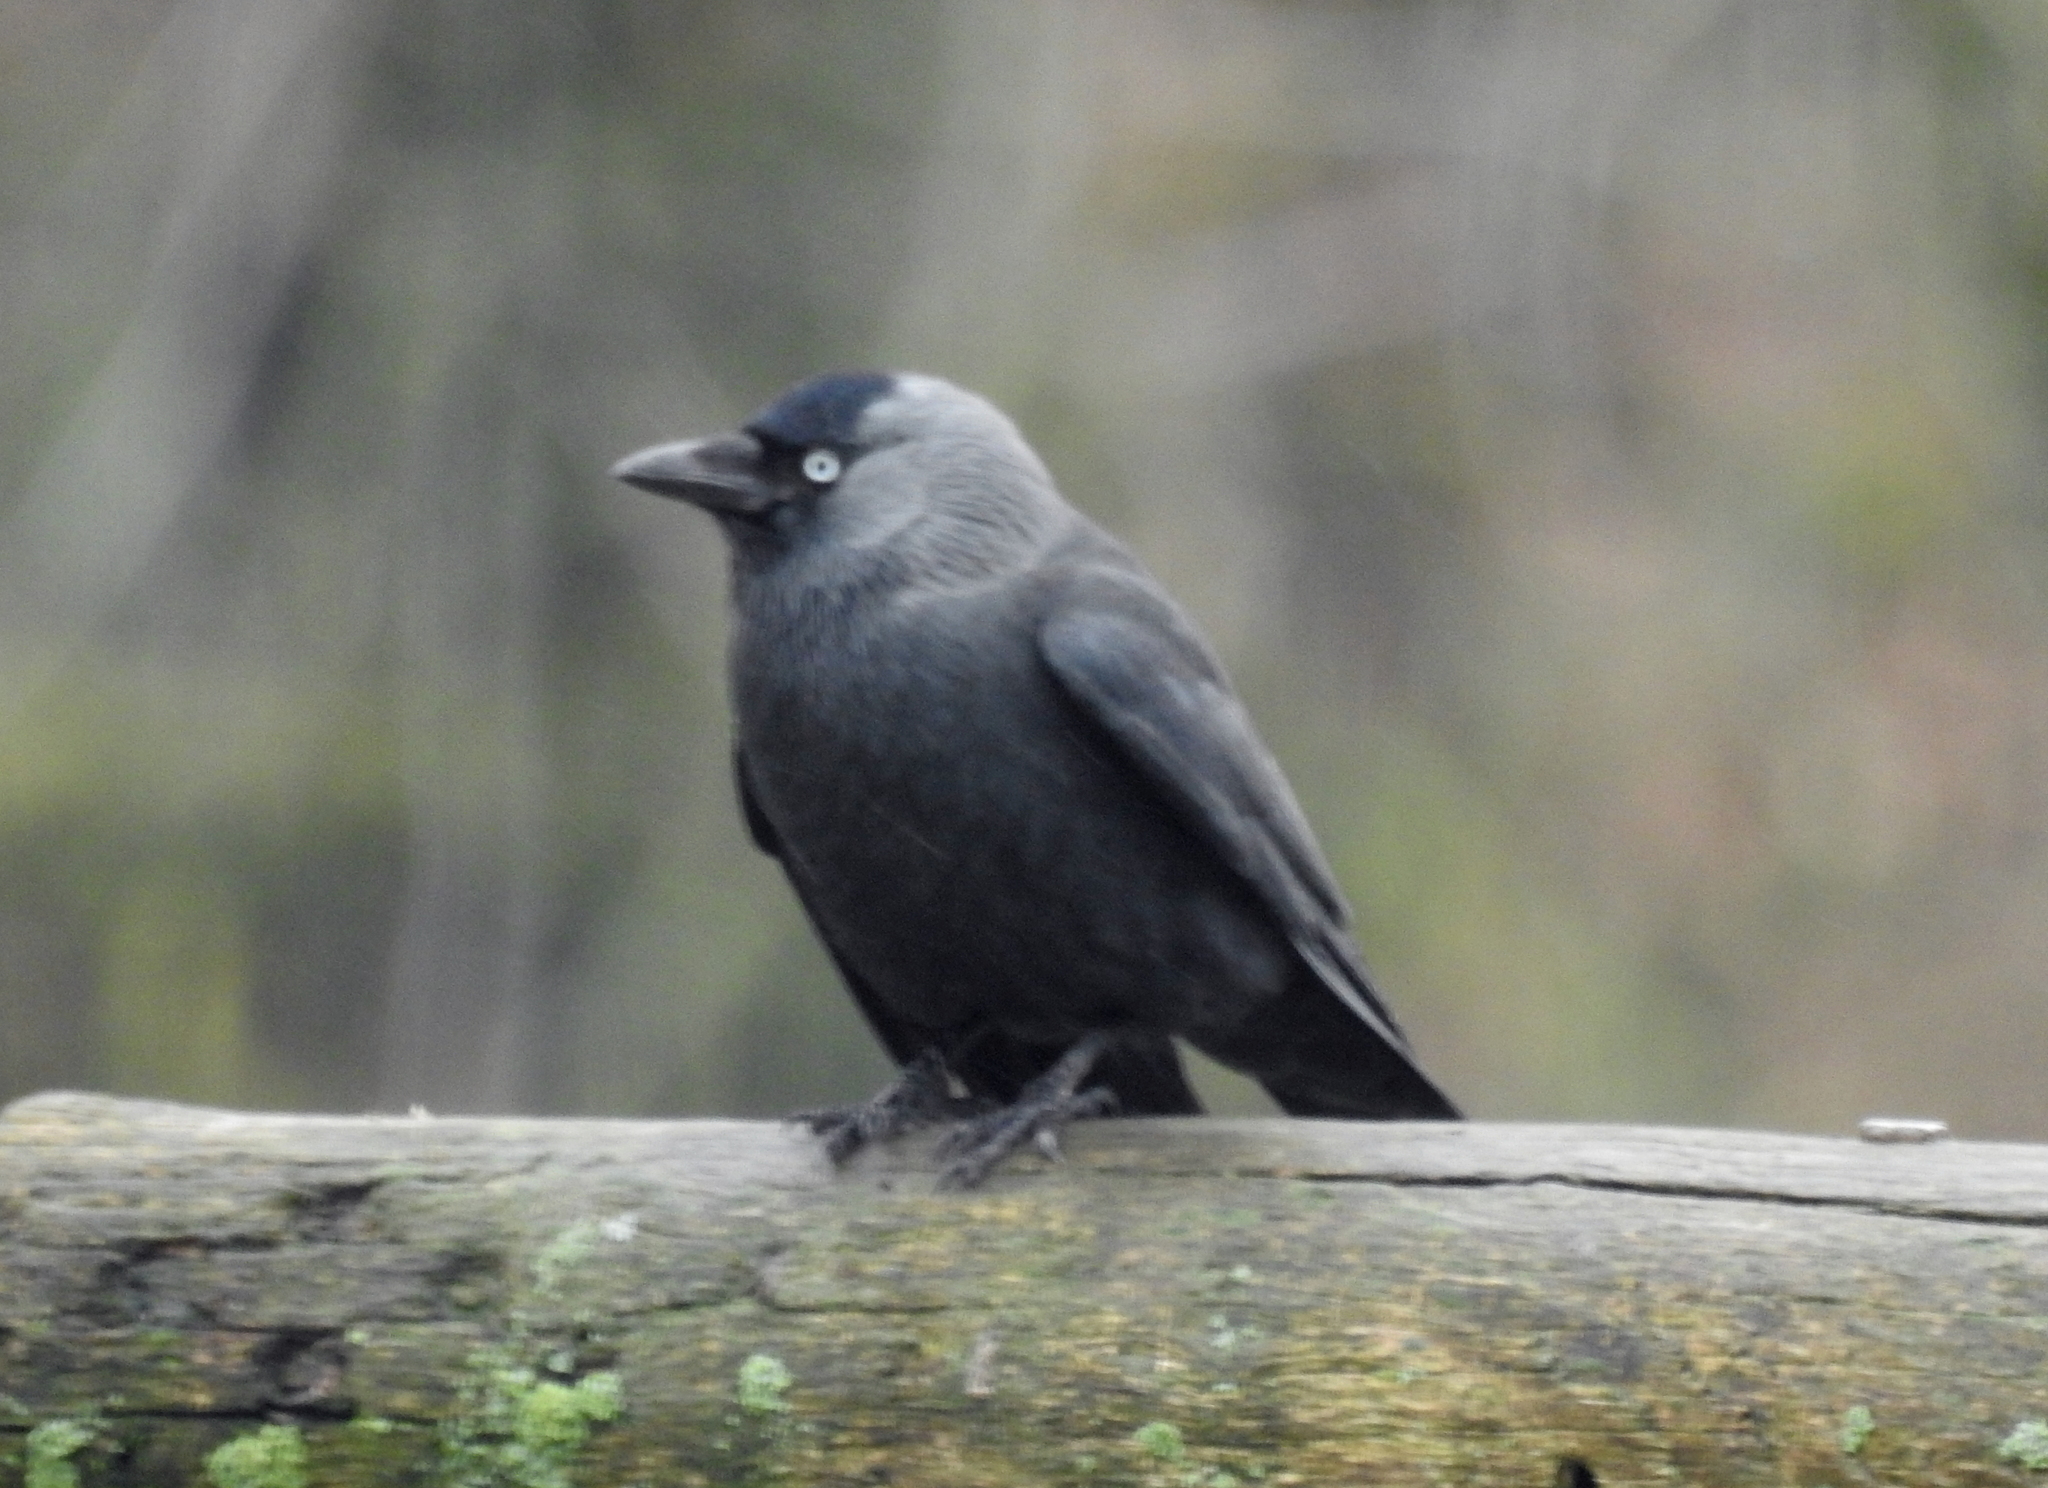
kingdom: Animalia
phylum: Chordata
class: Aves
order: Passeriformes
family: Corvidae
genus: Coloeus
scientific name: Coloeus monedula
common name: Western jackdaw
